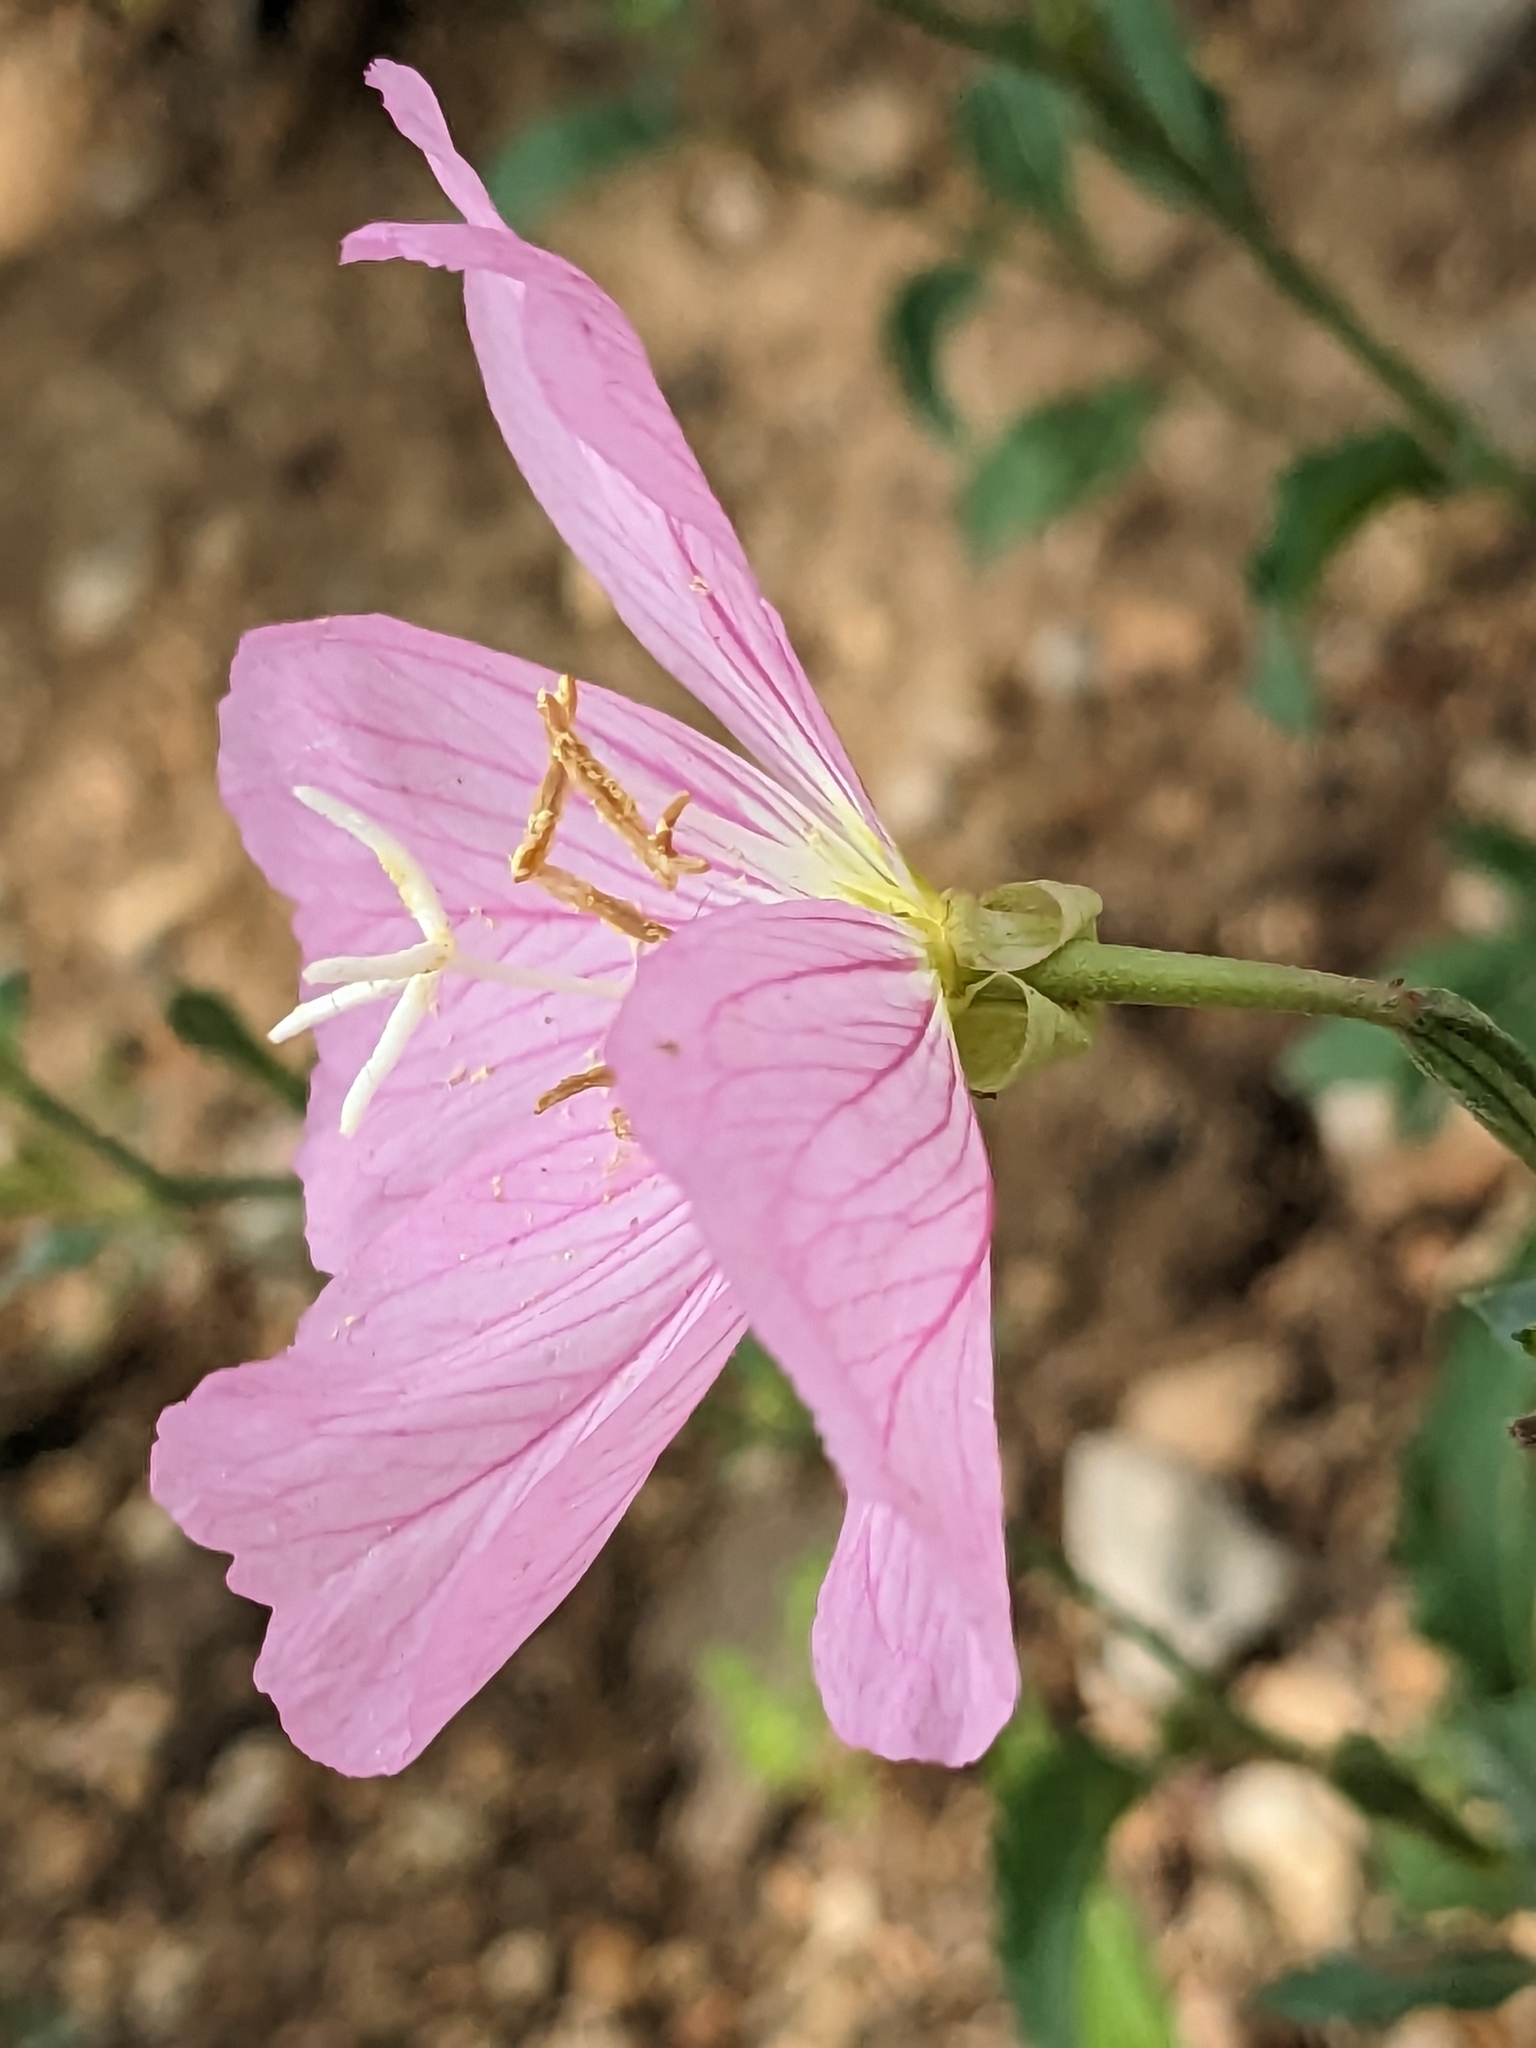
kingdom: Plantae
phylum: Tracheophyta
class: Magnoliopsida
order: Myrtales
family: Onagraceae
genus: Oenothera
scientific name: Oenothera speciosa
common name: White evening-primrose
